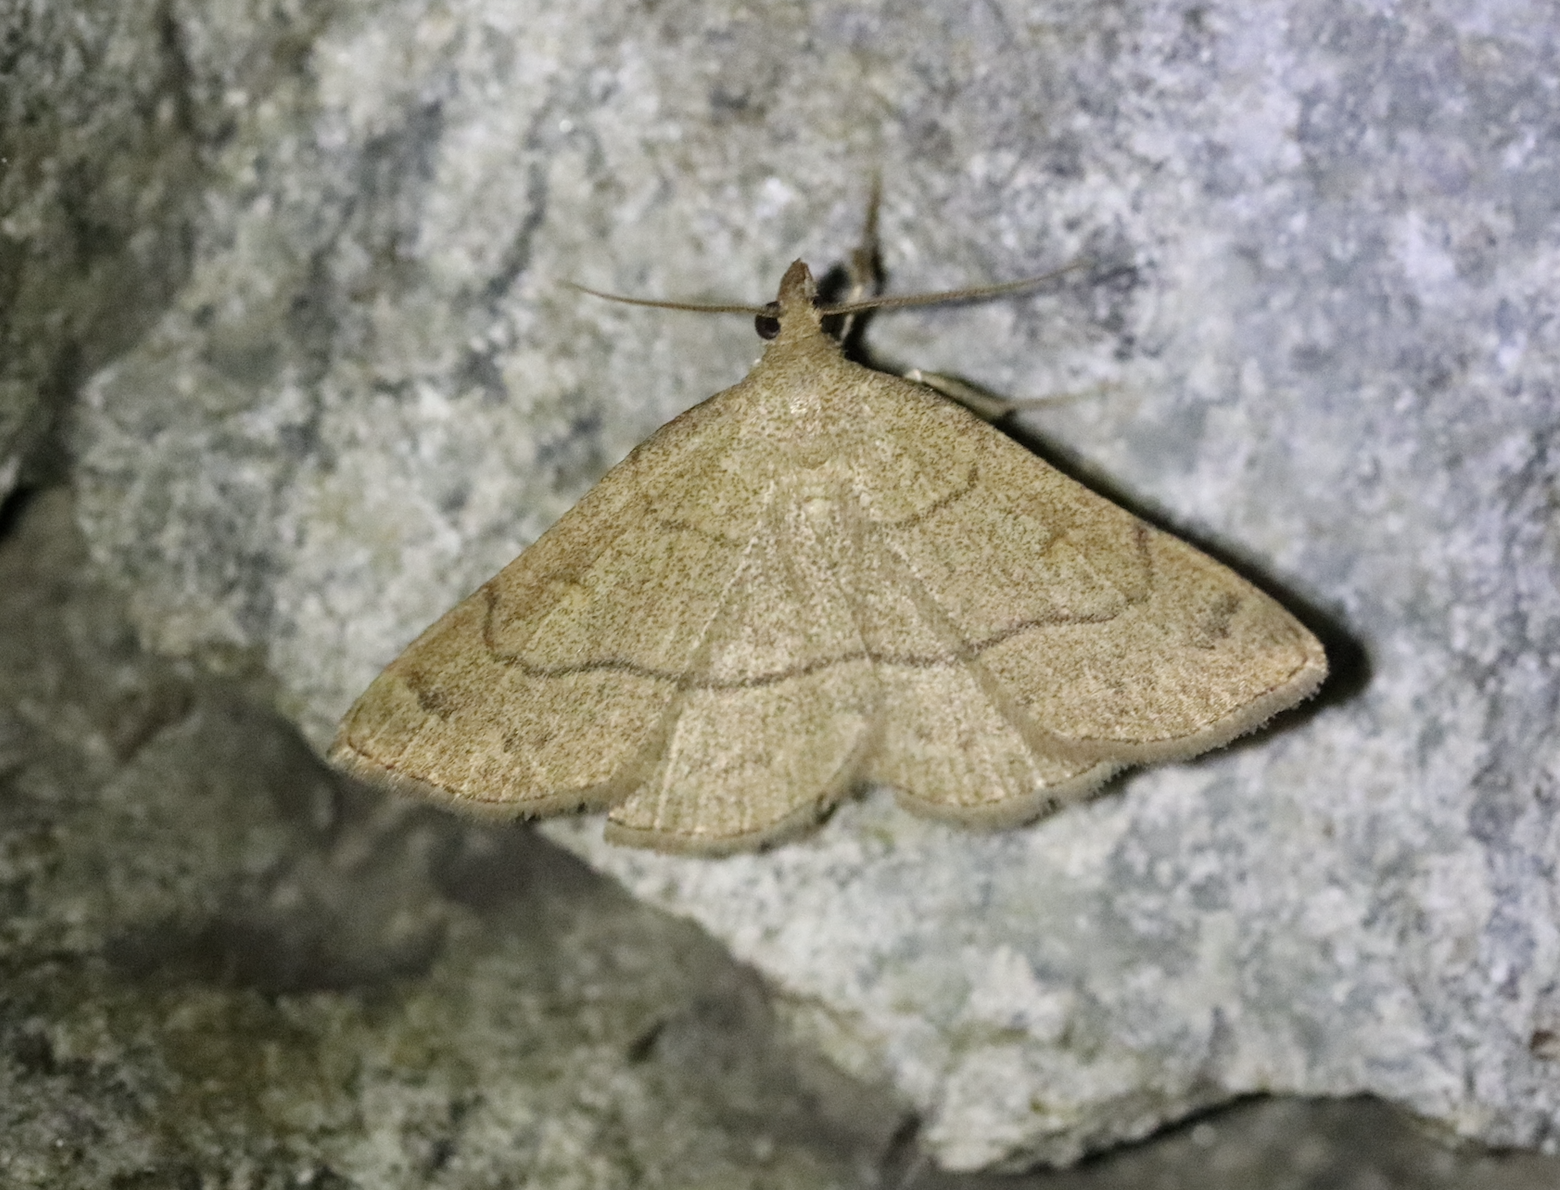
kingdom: Animalia
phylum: Arthropoda
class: Insecta
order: Lepidoptera
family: Erebidae
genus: Paracolax
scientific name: Paracolax tristalis
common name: Clay fan-foot
